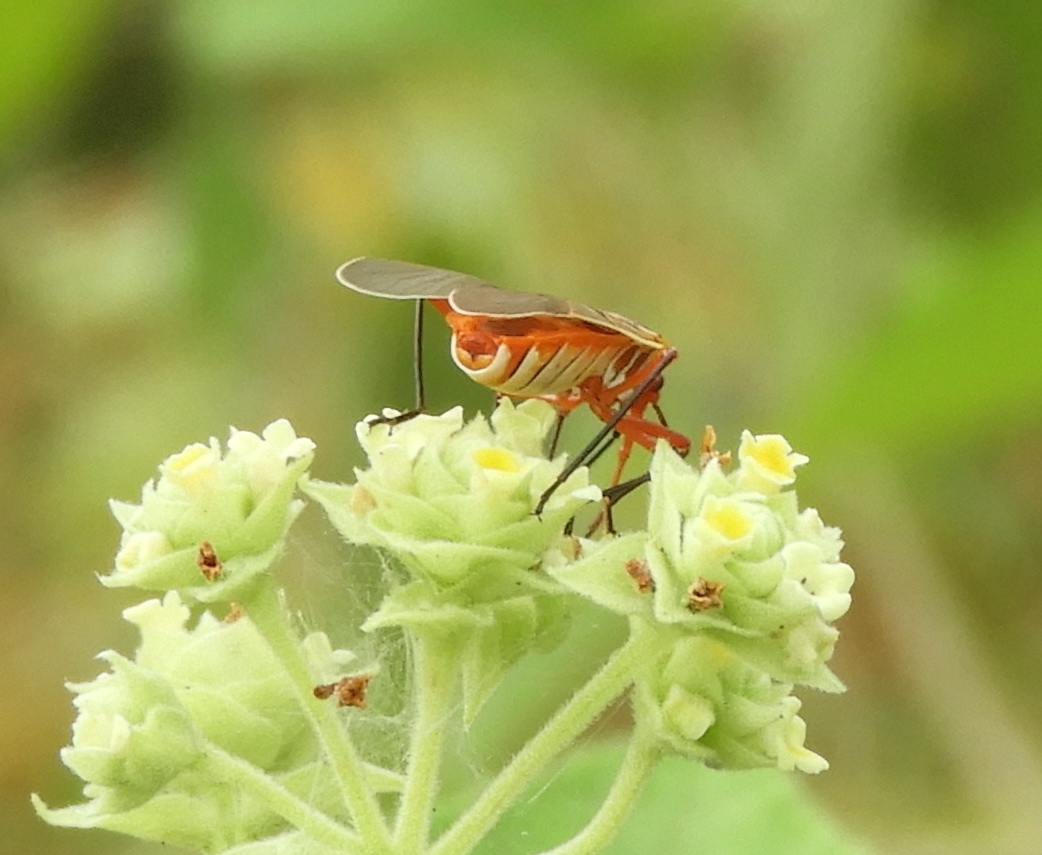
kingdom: Animalia
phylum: Arthropoda
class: Insecta
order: Hemiptera
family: Pyrrhocoridae
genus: Dysdercus
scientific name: Dysdercus
